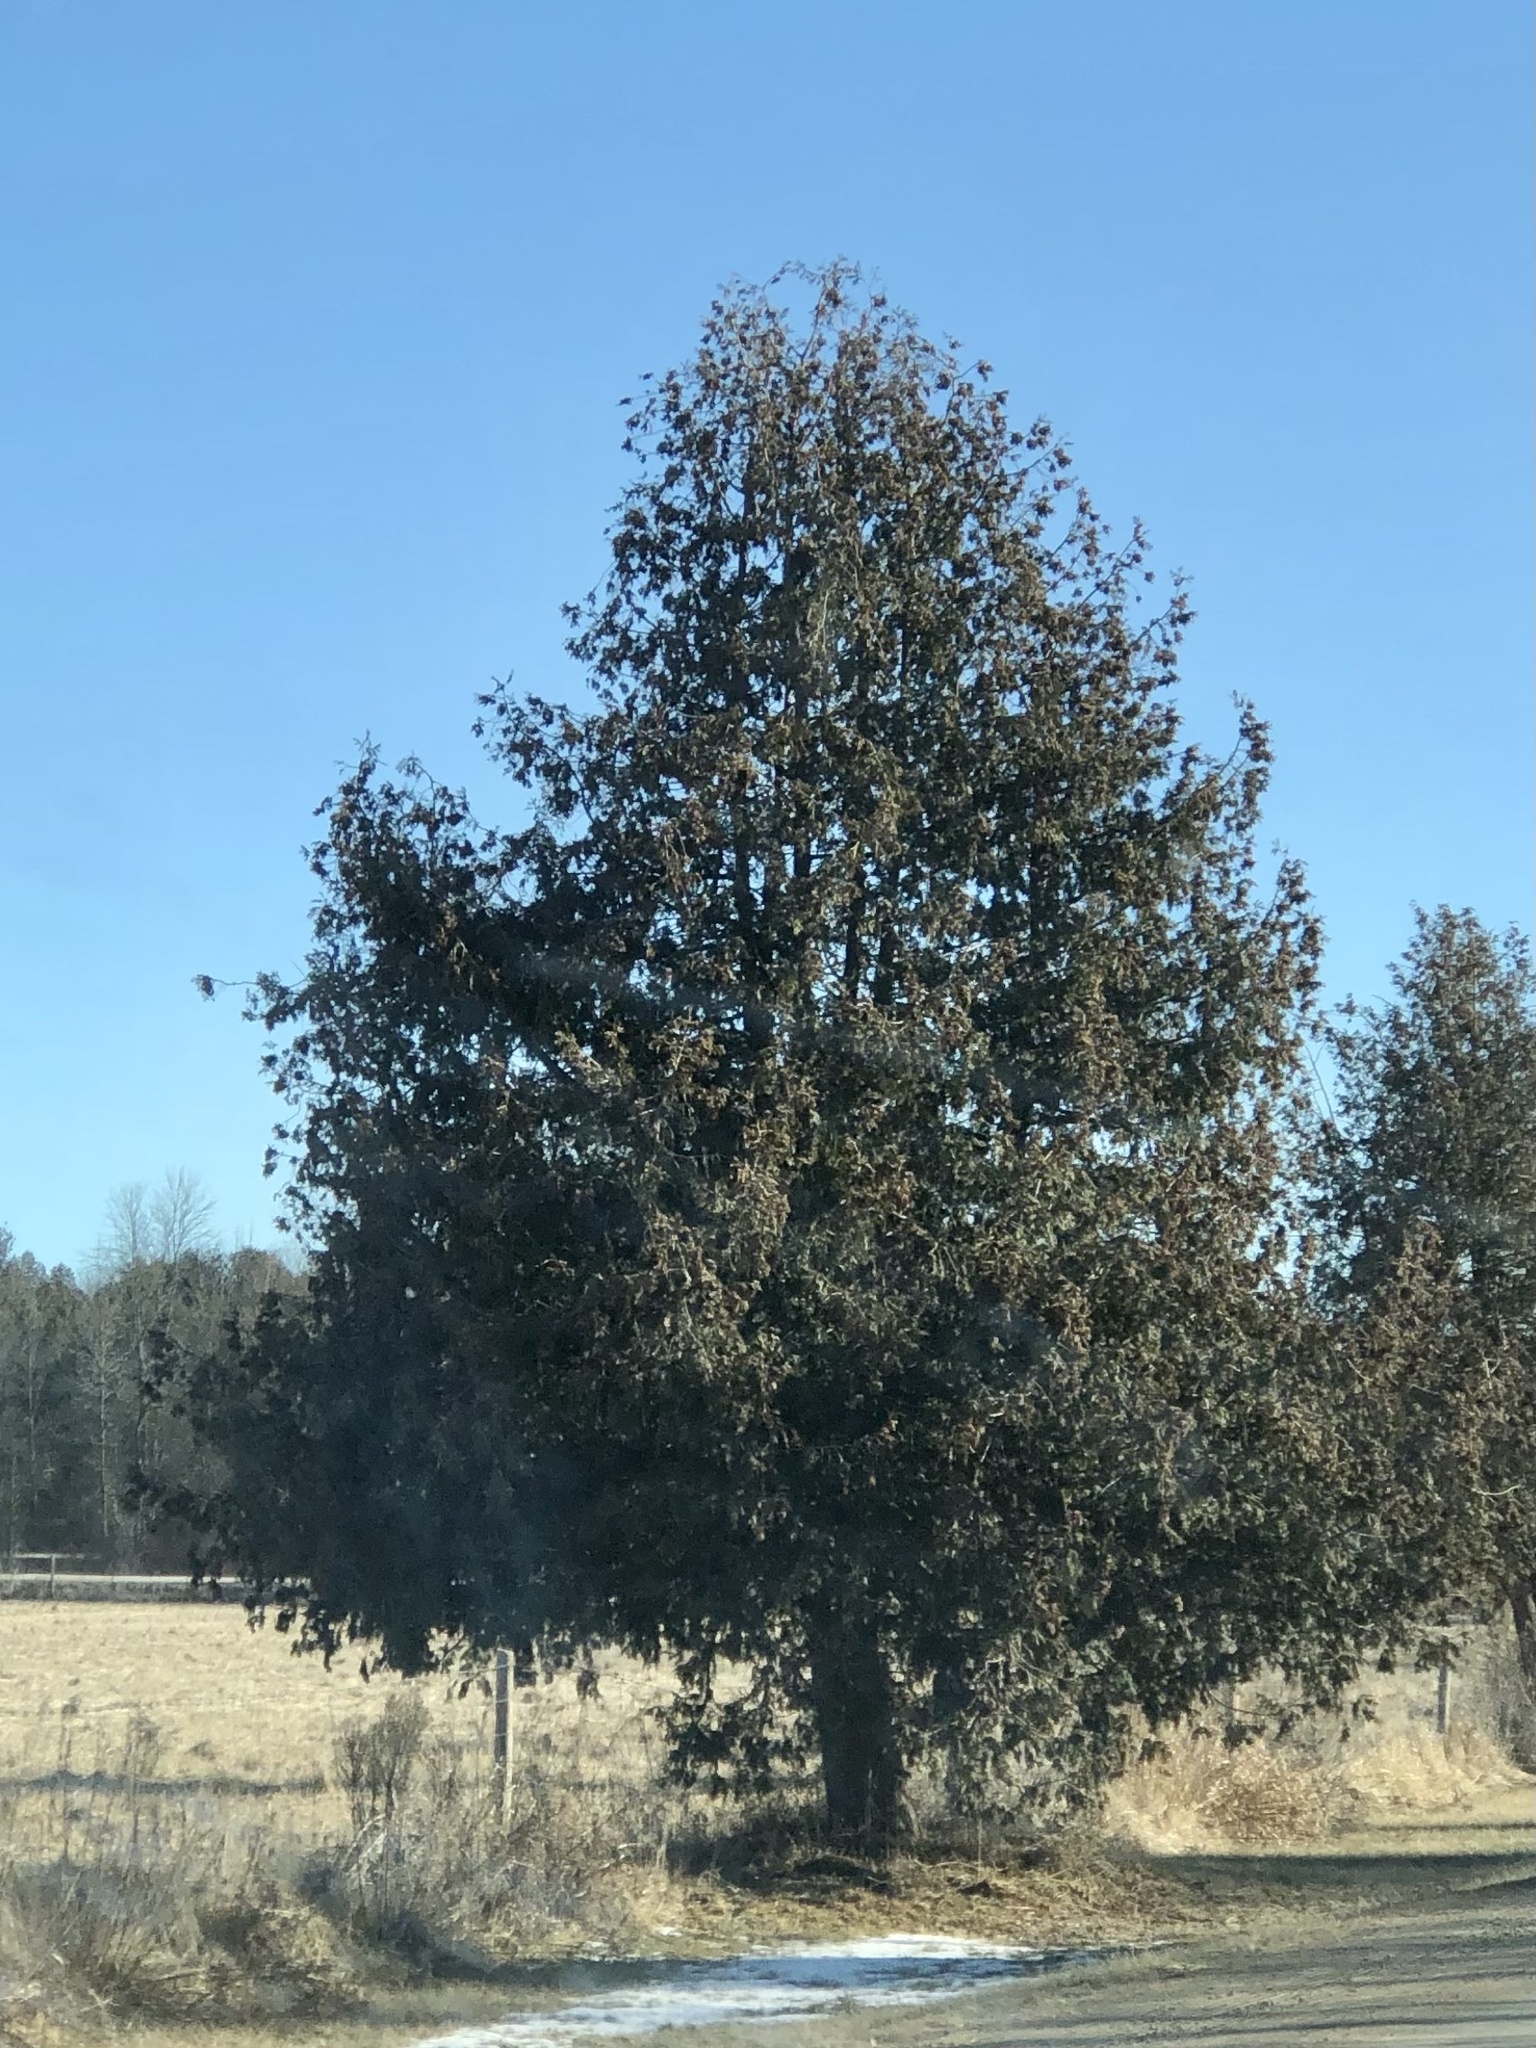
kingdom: Plantae
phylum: Tracheophyta
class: Pinopsida
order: Pinales
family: Cupressaceae
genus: Thuja
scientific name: Thuja occidentalis
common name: Northern white-cedar
